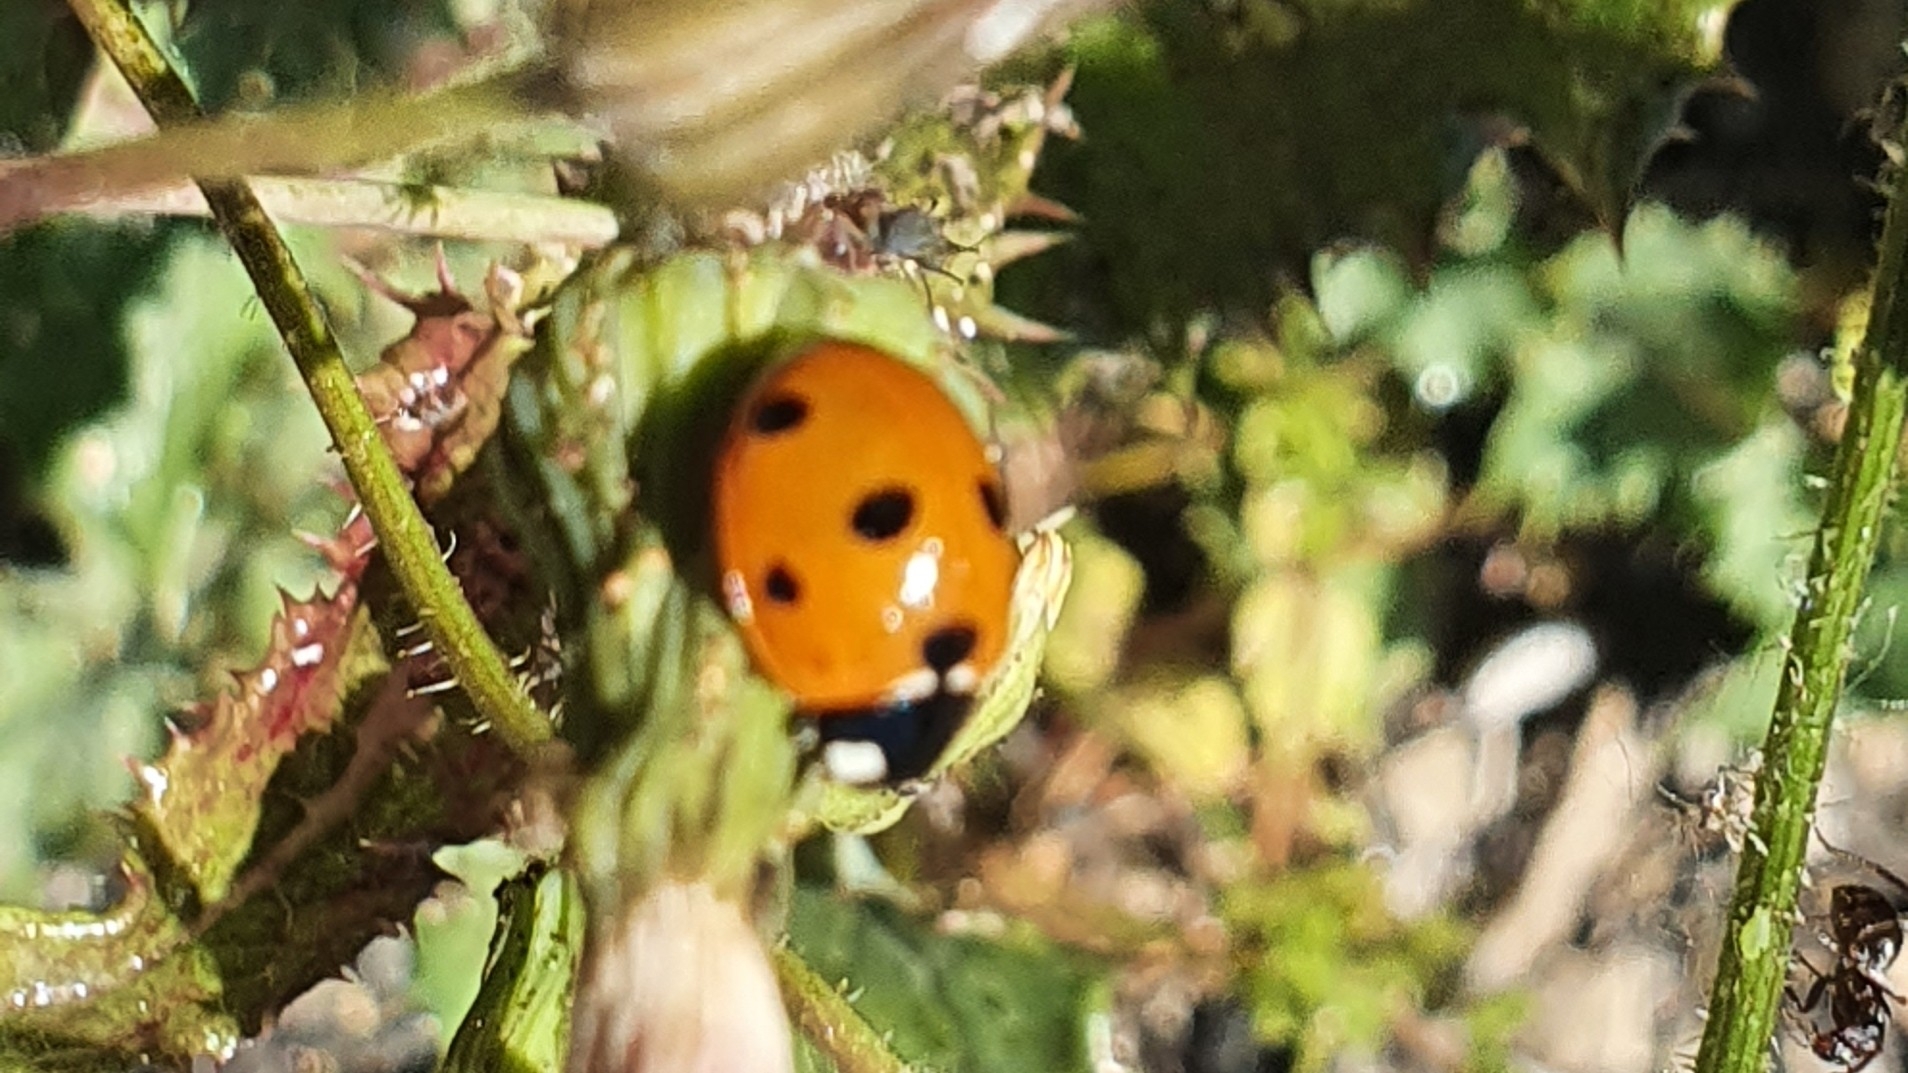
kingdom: Animalia
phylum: Arthropoda
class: Insecta
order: Coleoptera
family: Coccinellidae
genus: Coccinella
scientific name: Coccinella septempunctata
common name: Sevenspotted lady beetle
